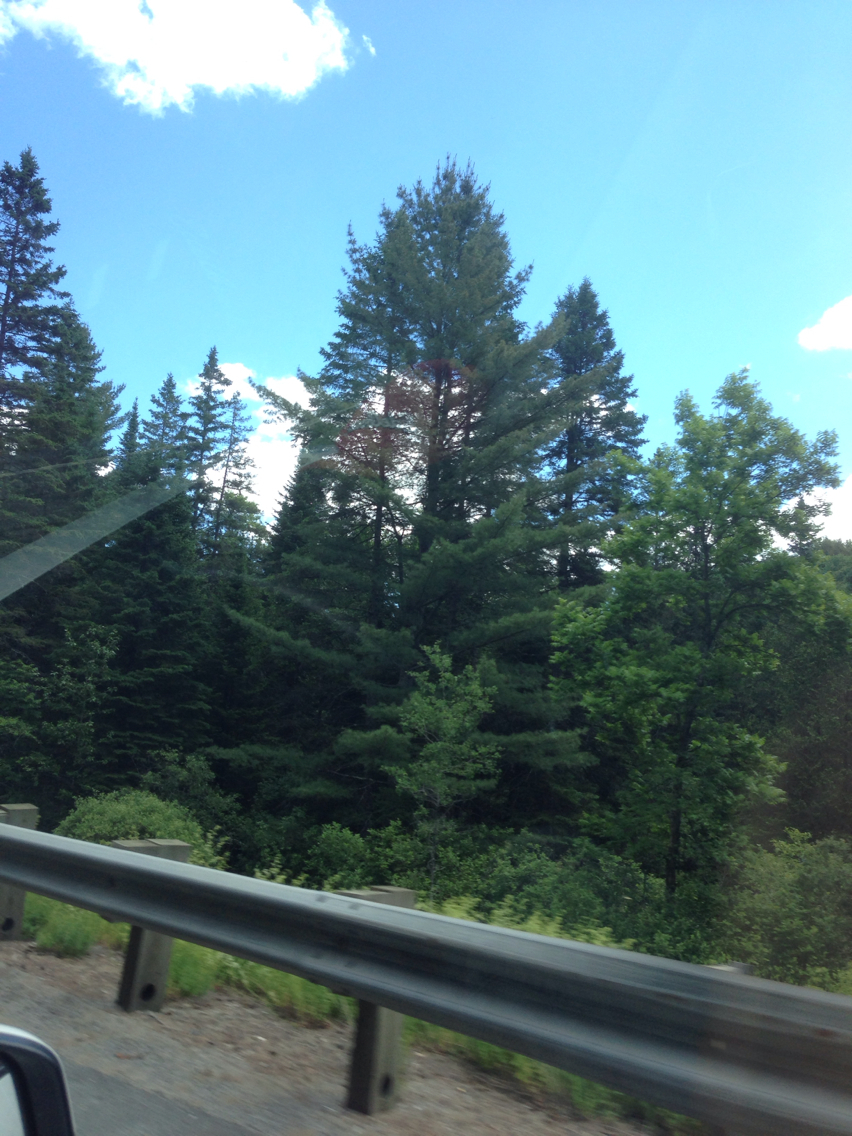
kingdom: Plantae
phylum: Tracheophyta
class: Pinopsida
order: Pinales
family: Pinaceae
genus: Pinus
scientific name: Pinus strobus
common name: Weymouth pine
